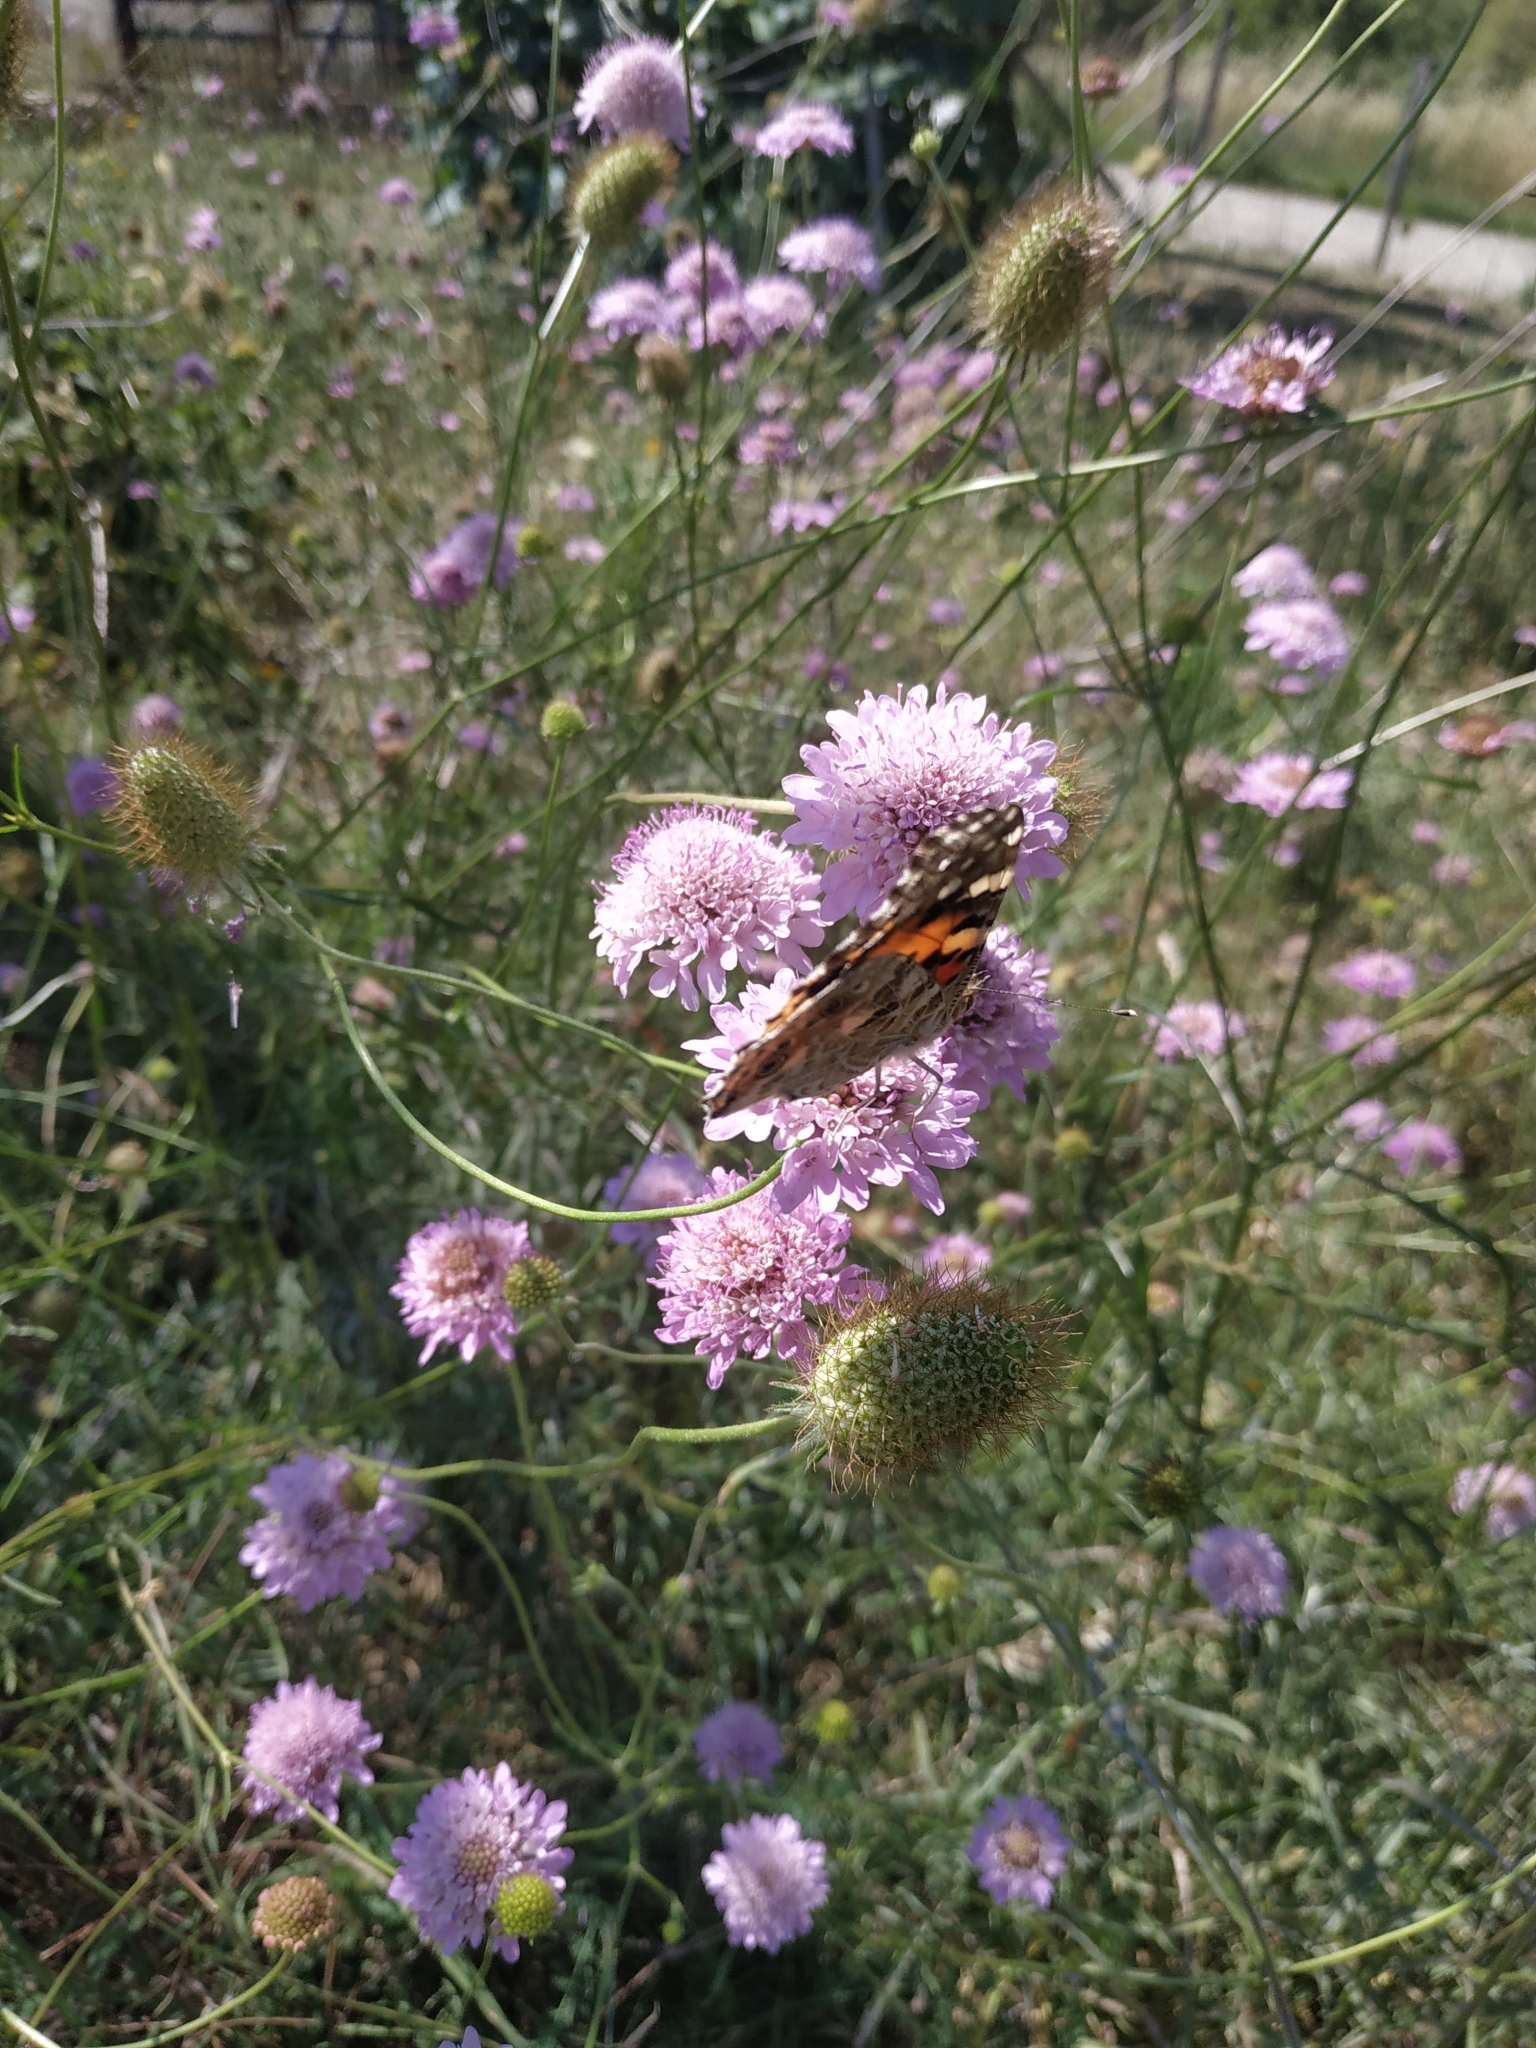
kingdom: Animalia
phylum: Arthropoda
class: Insecta
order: Lepidoptera
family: Nymphalidae
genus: Vanessa
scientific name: Vanessa cardui
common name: Painted lady
